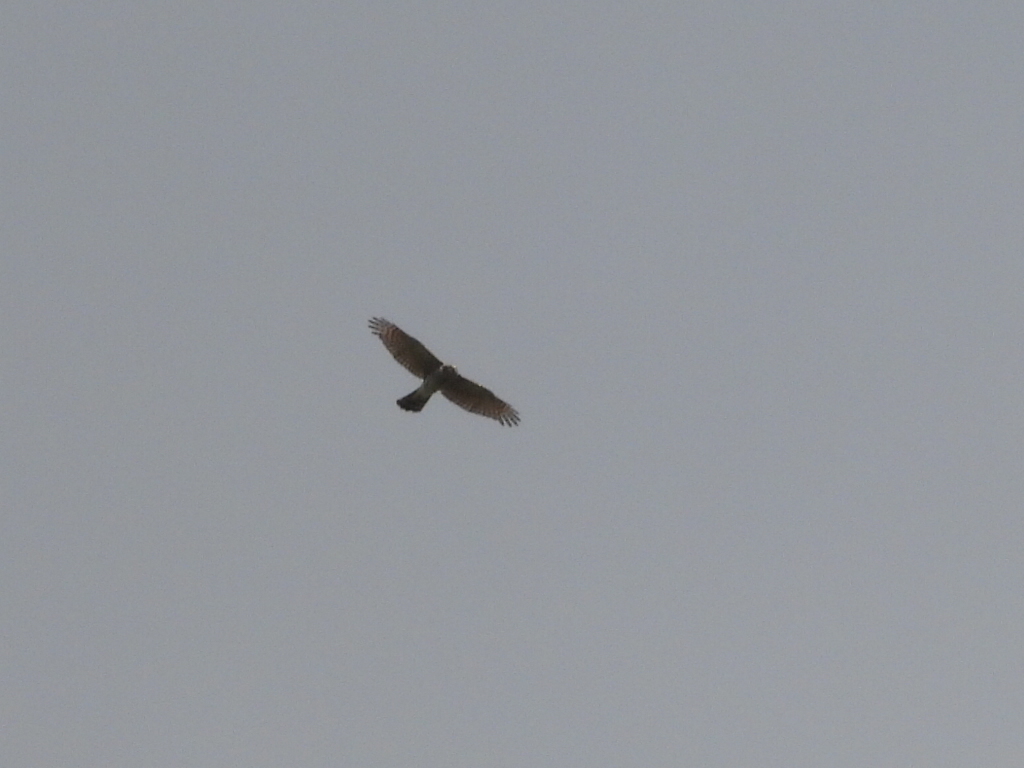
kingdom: Animalia
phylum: Chordata
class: Aves
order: Accipitriformes
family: Accipitridae
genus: Circus
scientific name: Circus cyaneus
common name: Hen harrier
